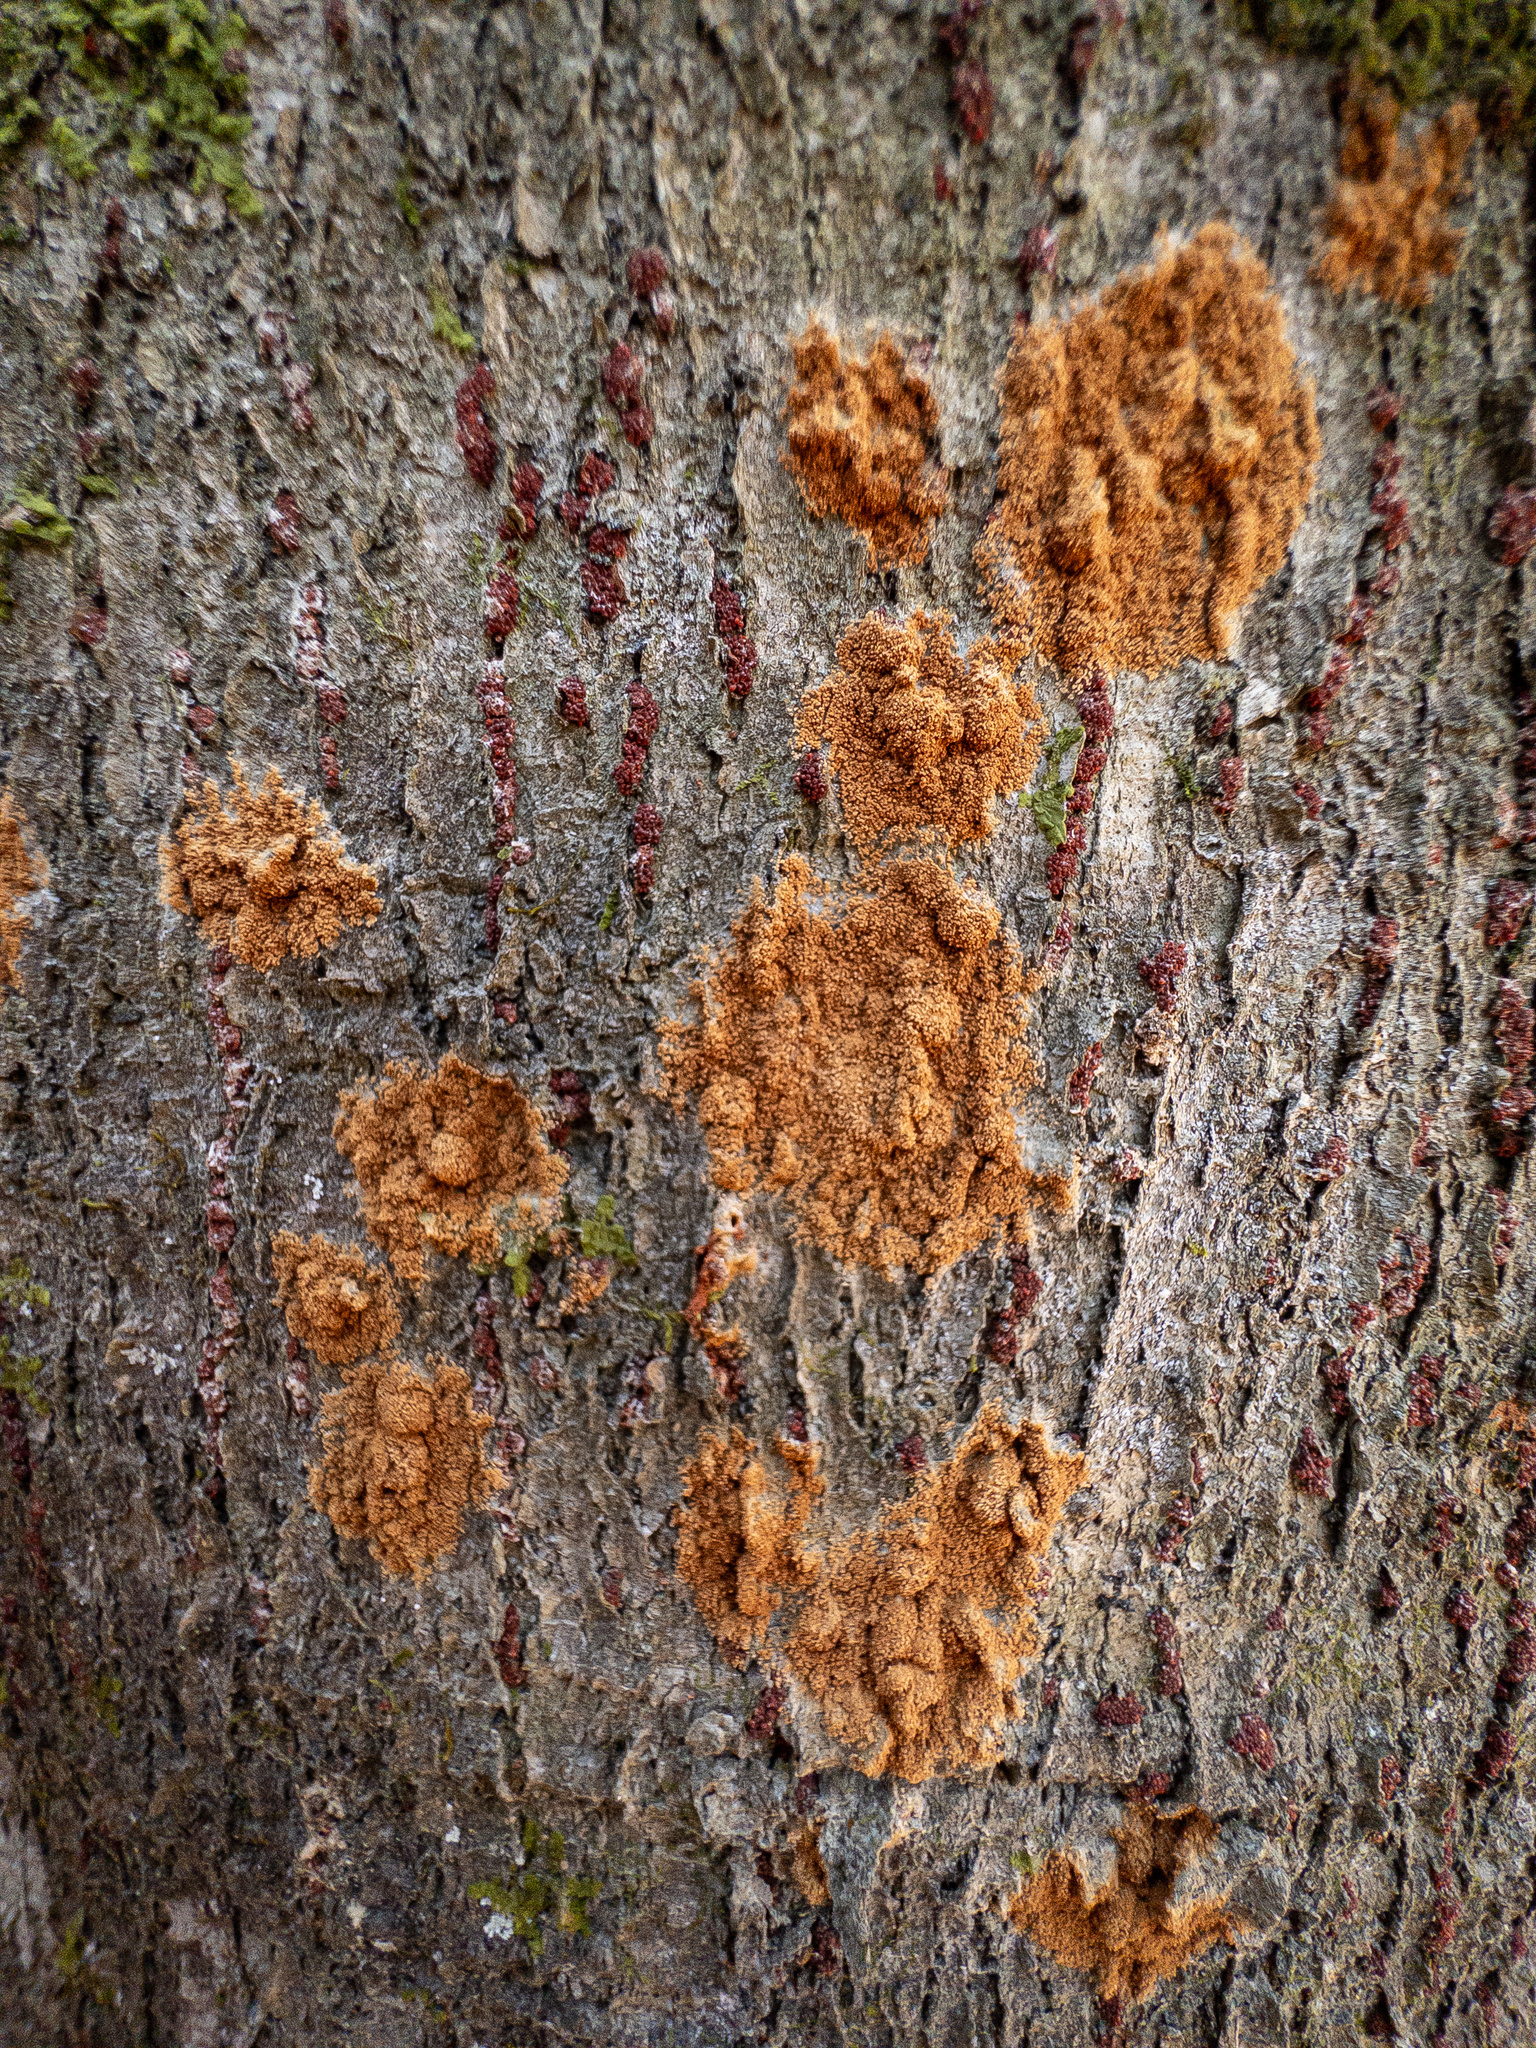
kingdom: Fungi
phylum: Ascomycota
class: Sordariomycetes
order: Hypocreales
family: Nectriaceae
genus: Neonectria
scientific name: Neonectria faginata
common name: Beech bark canker
